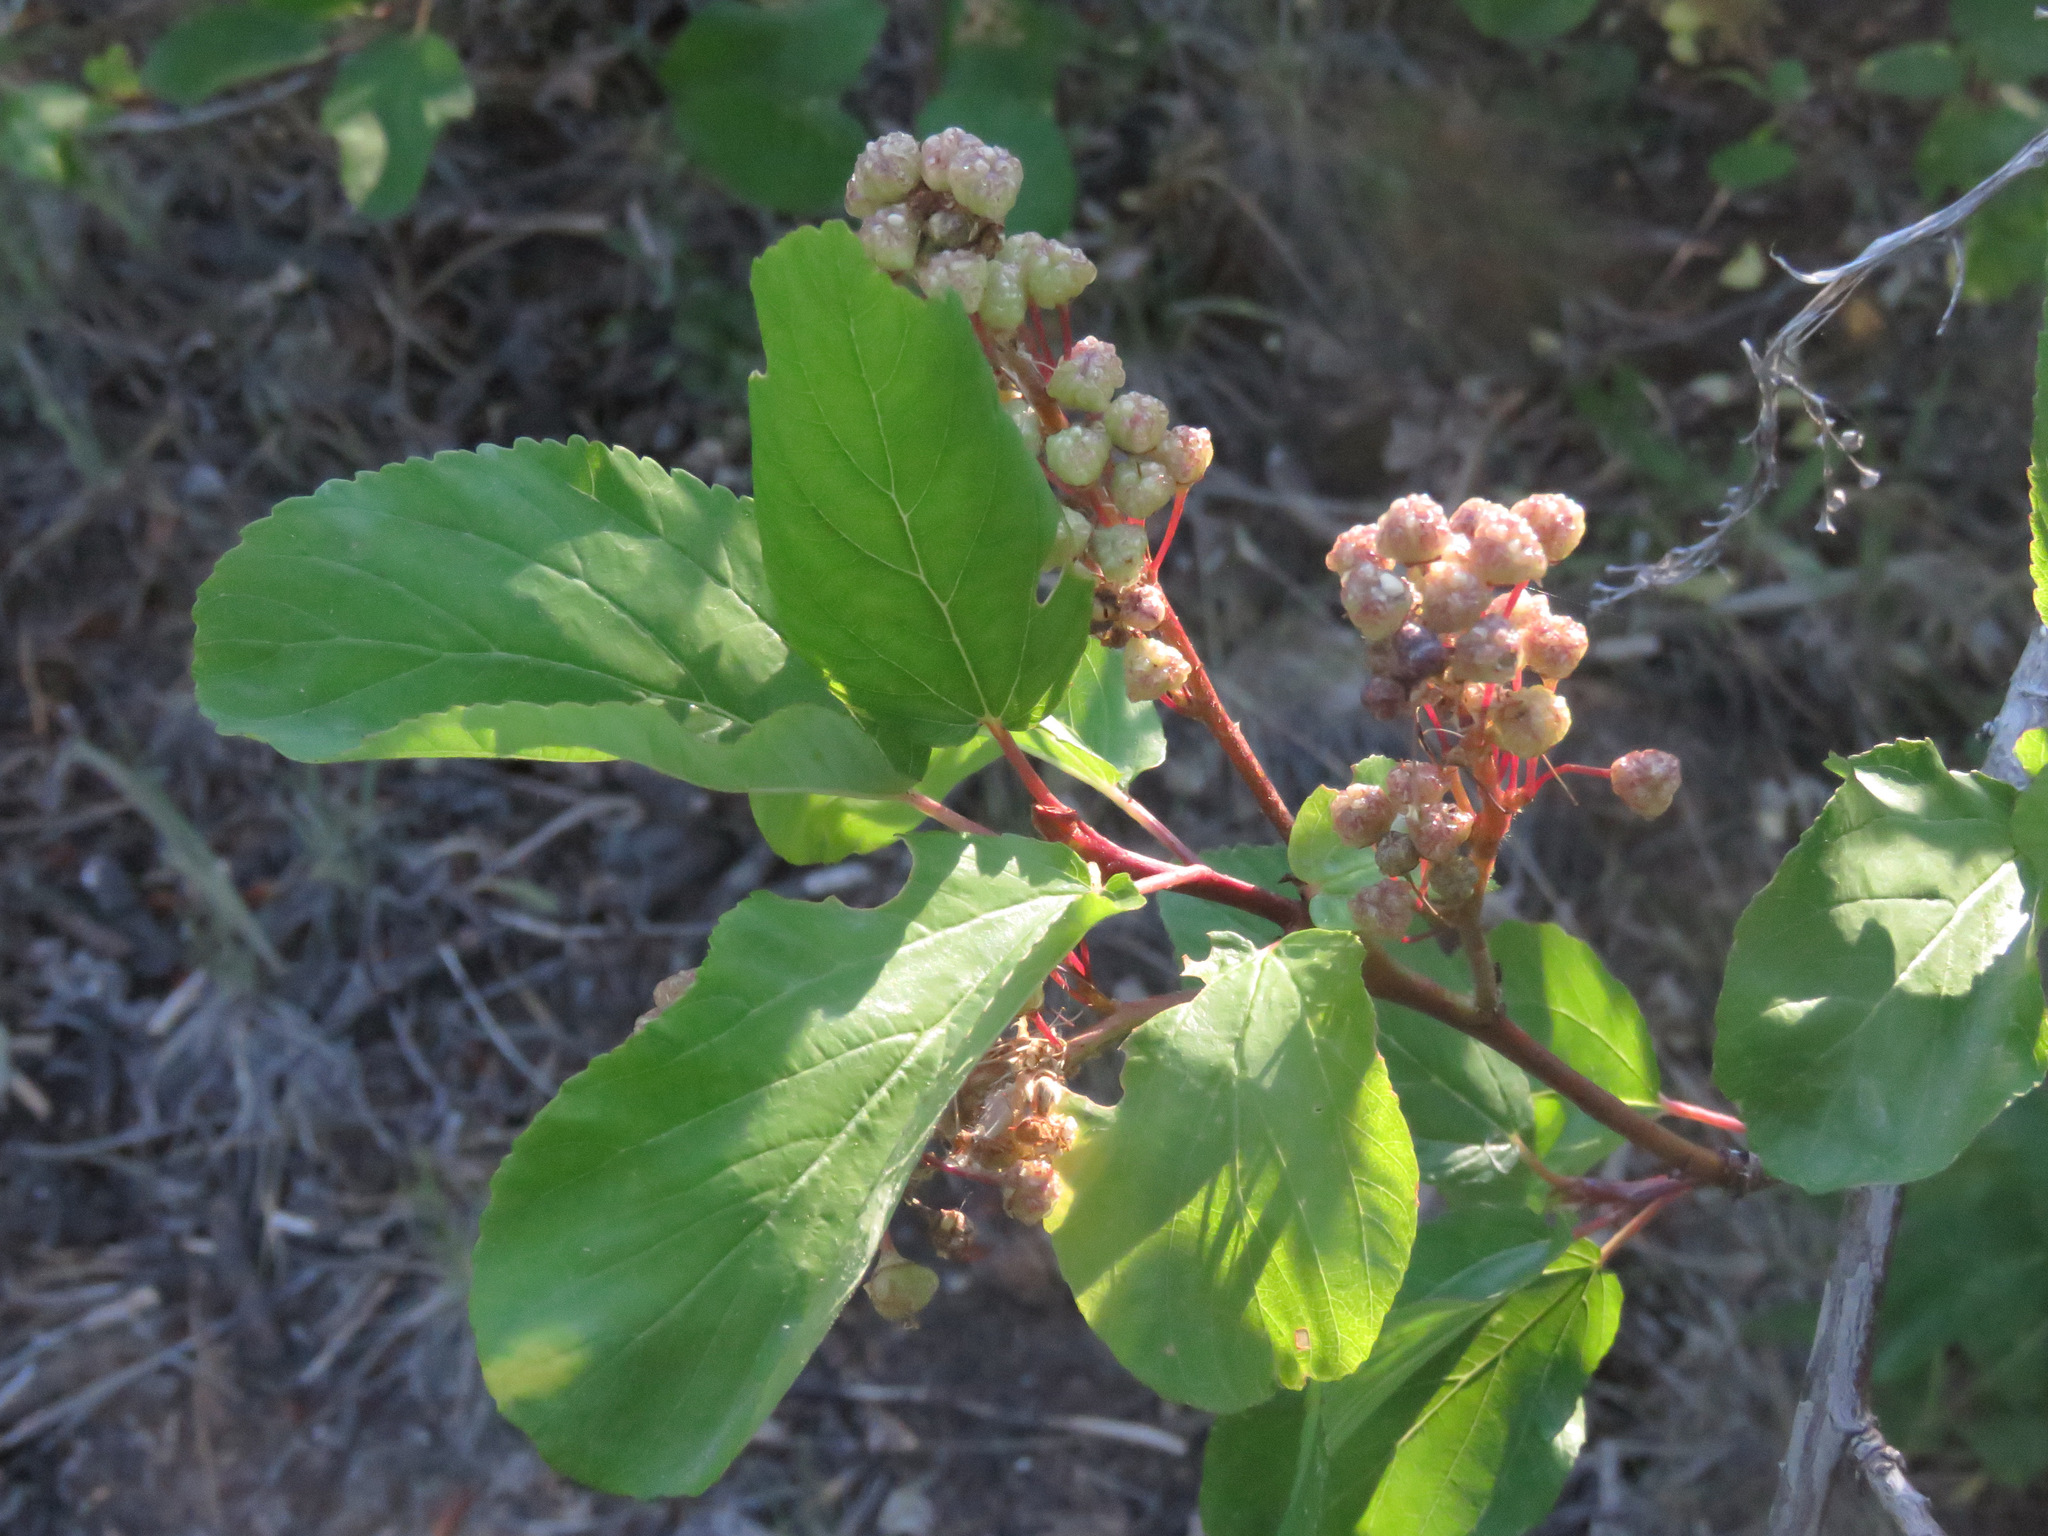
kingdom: Plantae
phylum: Tracheophyta
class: Magnoliopsida
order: Rosales
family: Rhamnaceae
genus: Ceanothus
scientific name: Ceanothus sanguineus
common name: Teatree
